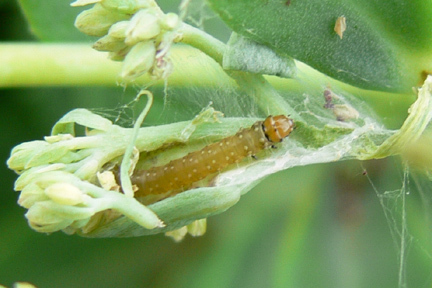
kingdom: Animalia
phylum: Arthropoda
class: Insecta
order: Lepidoptera
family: Tortricidae
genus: Choristoneura
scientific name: Choristoneura parallela
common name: Parallel-banded leafroller moth
